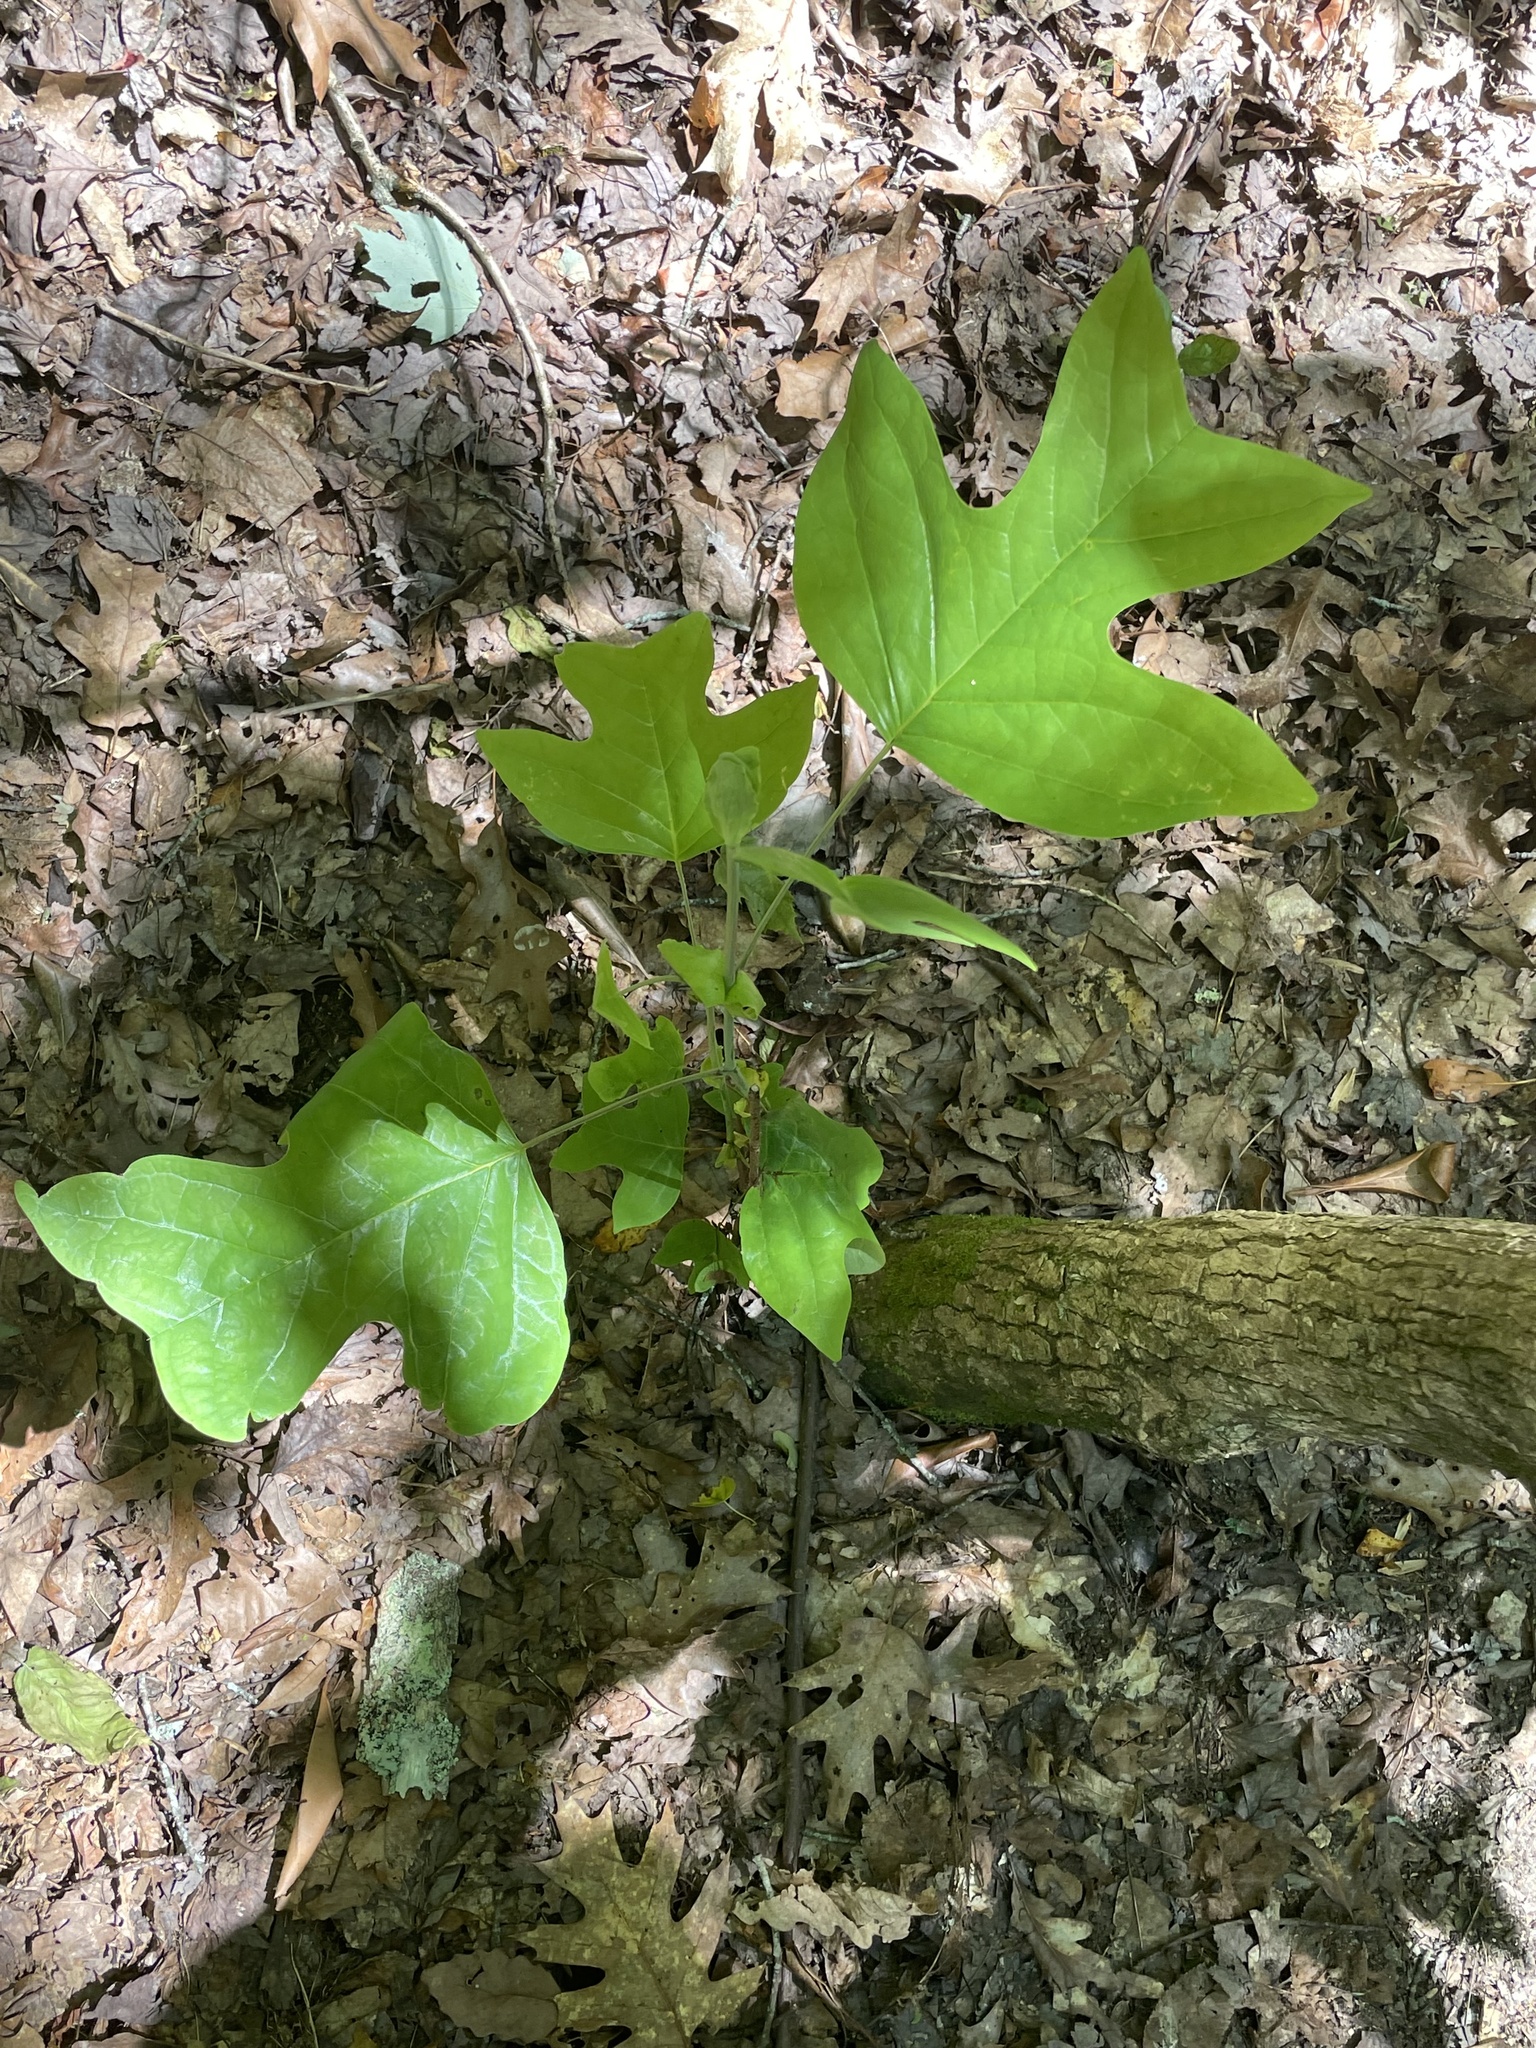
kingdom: Plantae
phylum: Tracheophyta
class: Magnoliopsida
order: Magnoliales
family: Magnoliaceae
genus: Liriodendron
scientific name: Liriodendron tulipifera
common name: Tulip tree
